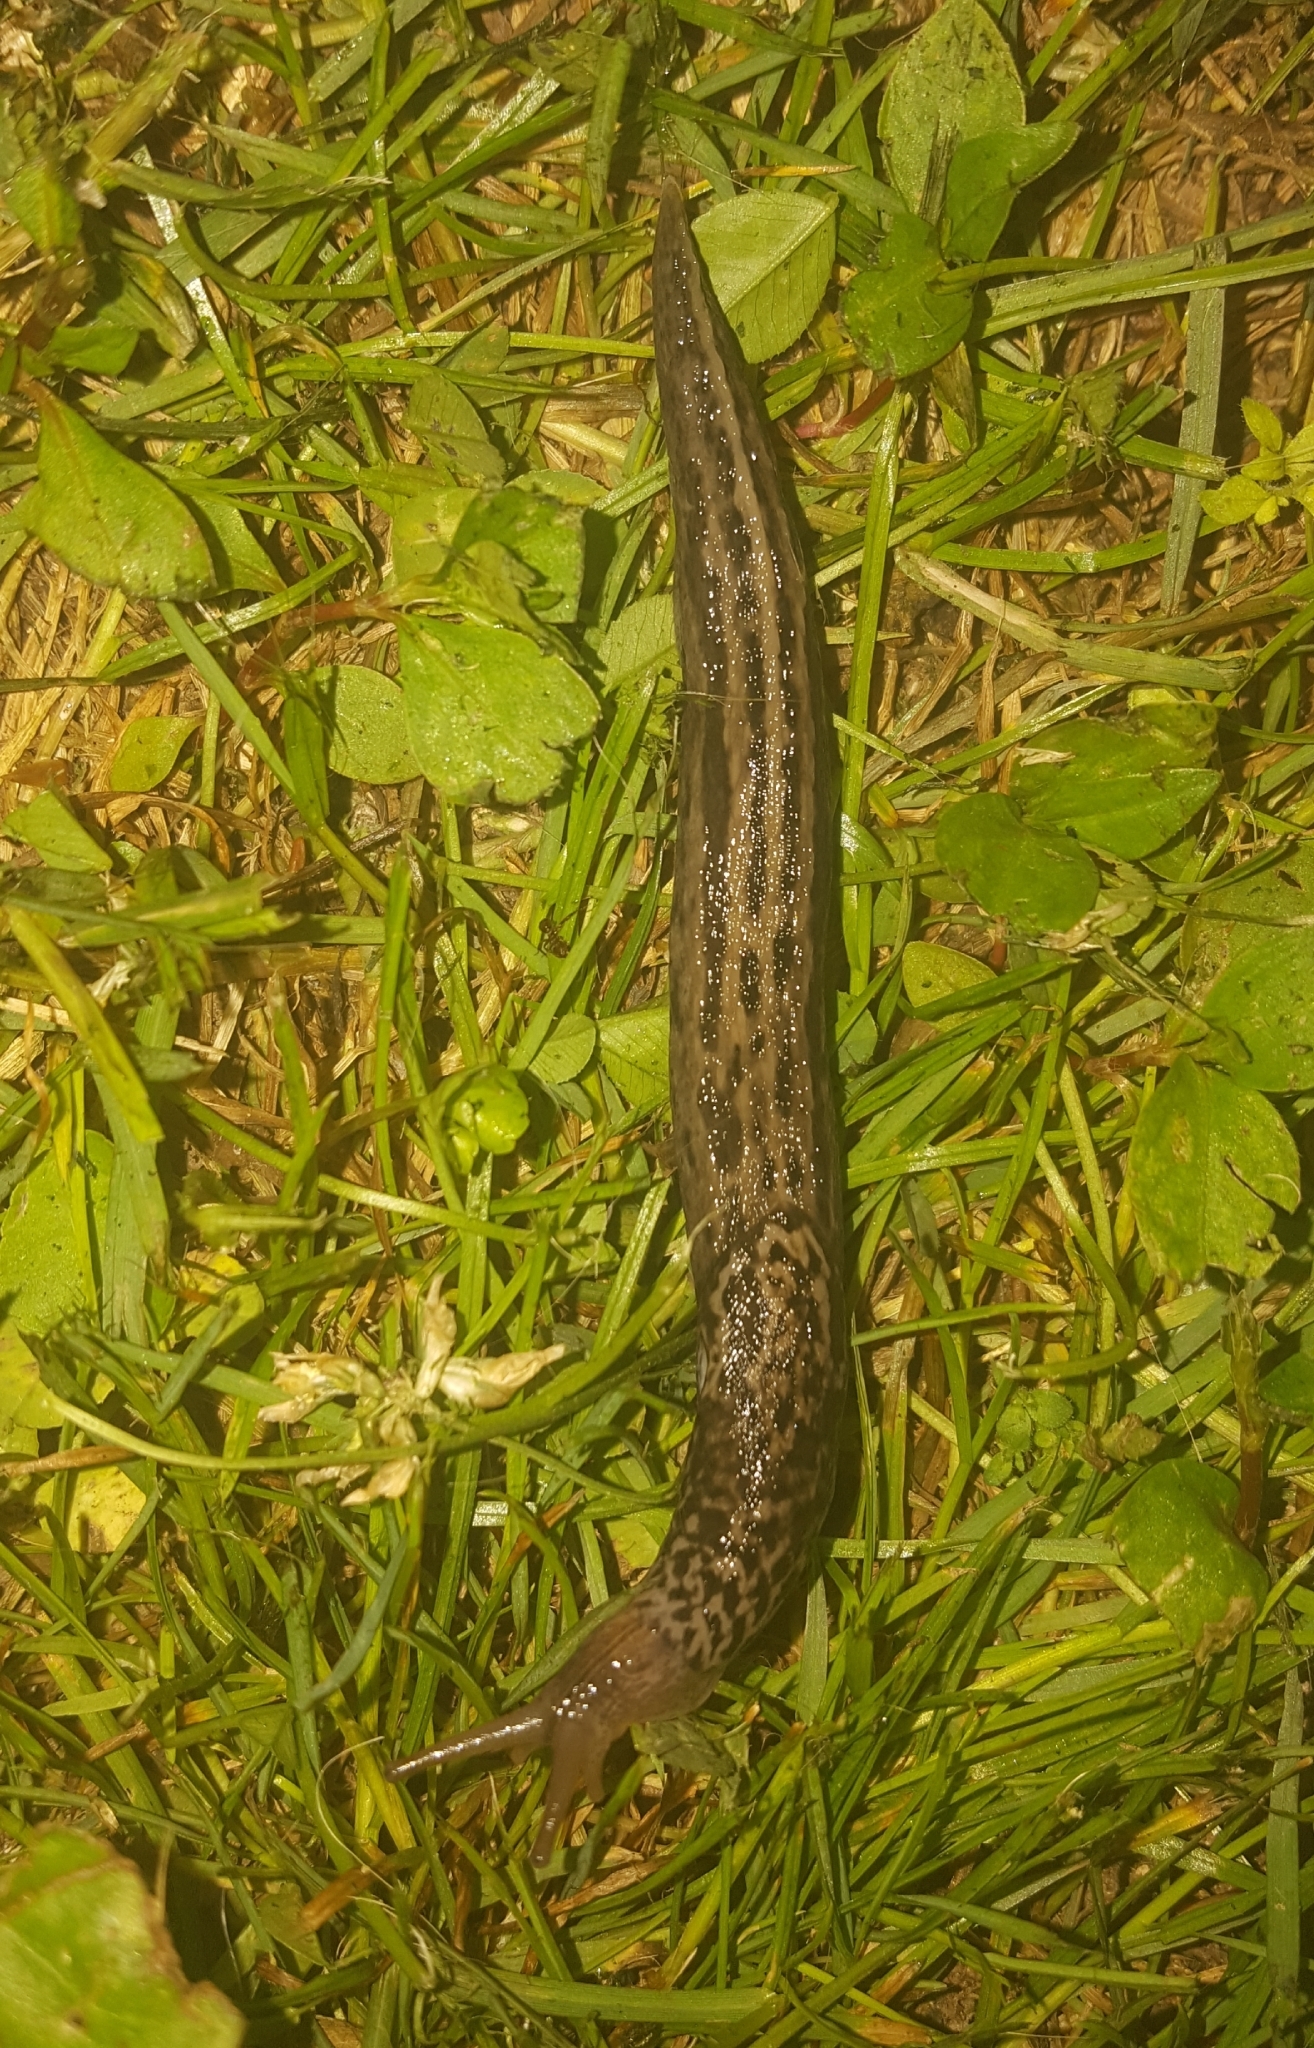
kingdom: Animalia
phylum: Mollusca
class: Gastropoda
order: Stylommatophora
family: Limacidae
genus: Limax
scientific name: Limax maximus
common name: Great grey slug
